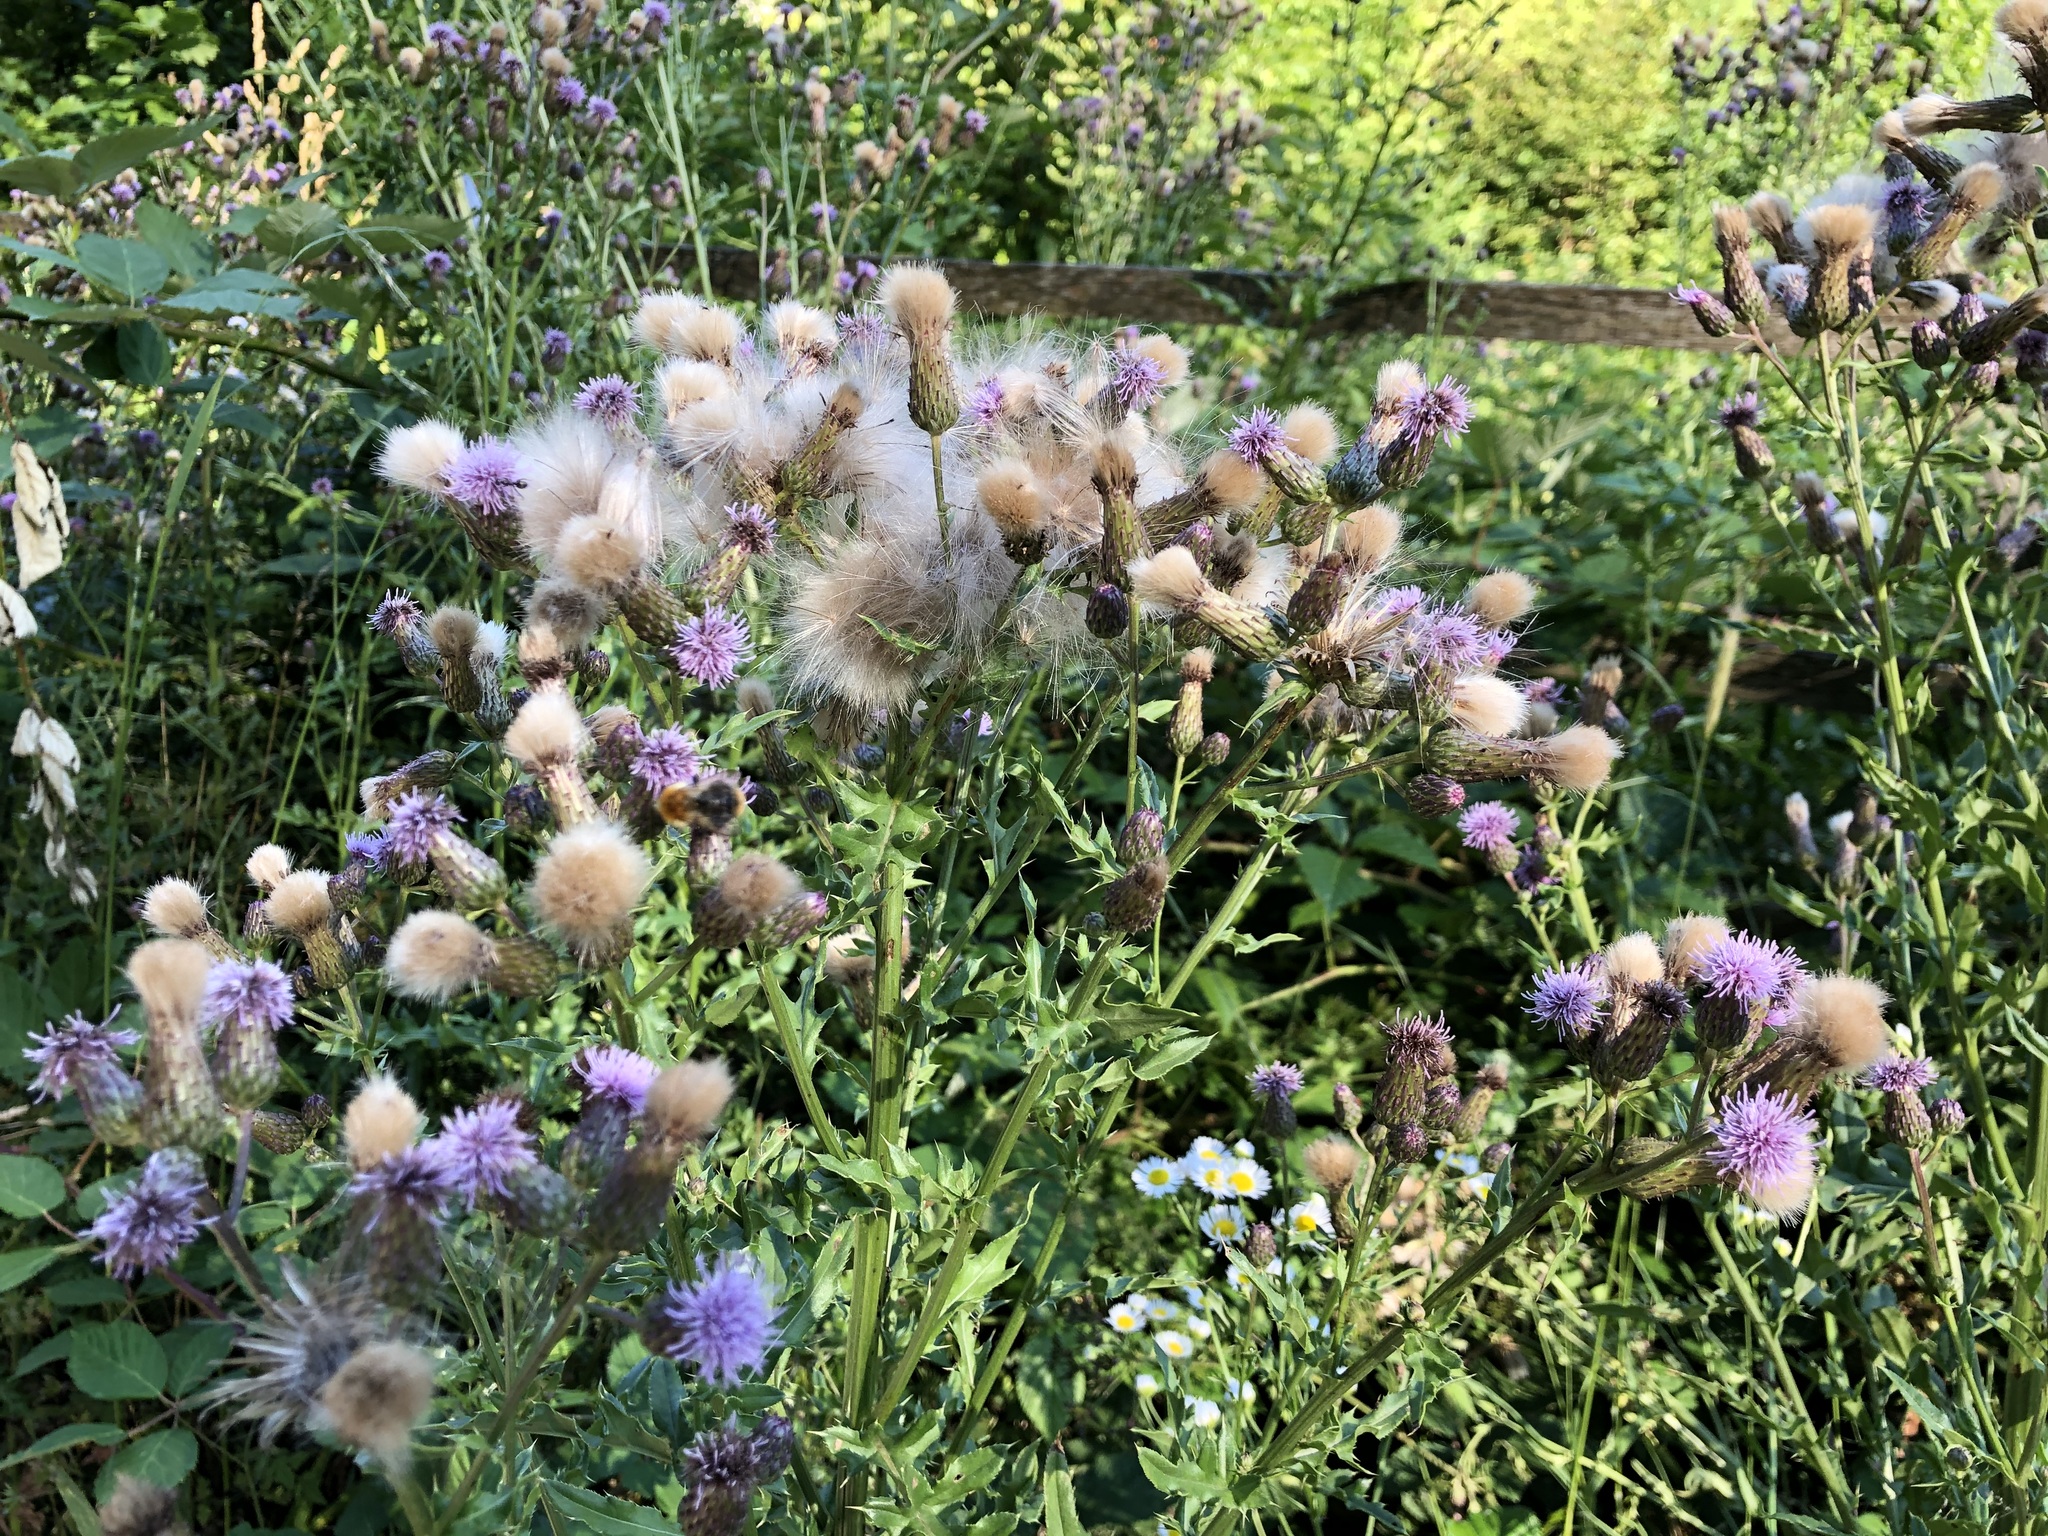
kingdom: Plantae
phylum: Tracheophyta
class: Magnoliopsida
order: Asterales
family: Asteraceae
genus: Cirsium
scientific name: Cirsium arvense
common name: Creeping thistle
